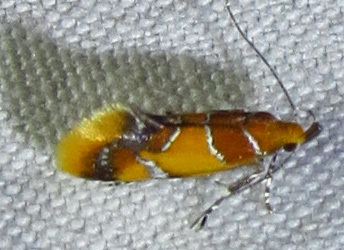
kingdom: Animalia
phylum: Arthropoda
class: Insecta
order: Lepidoptera
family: Oecophoridae
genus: Callima
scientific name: Callima argenticinctella
